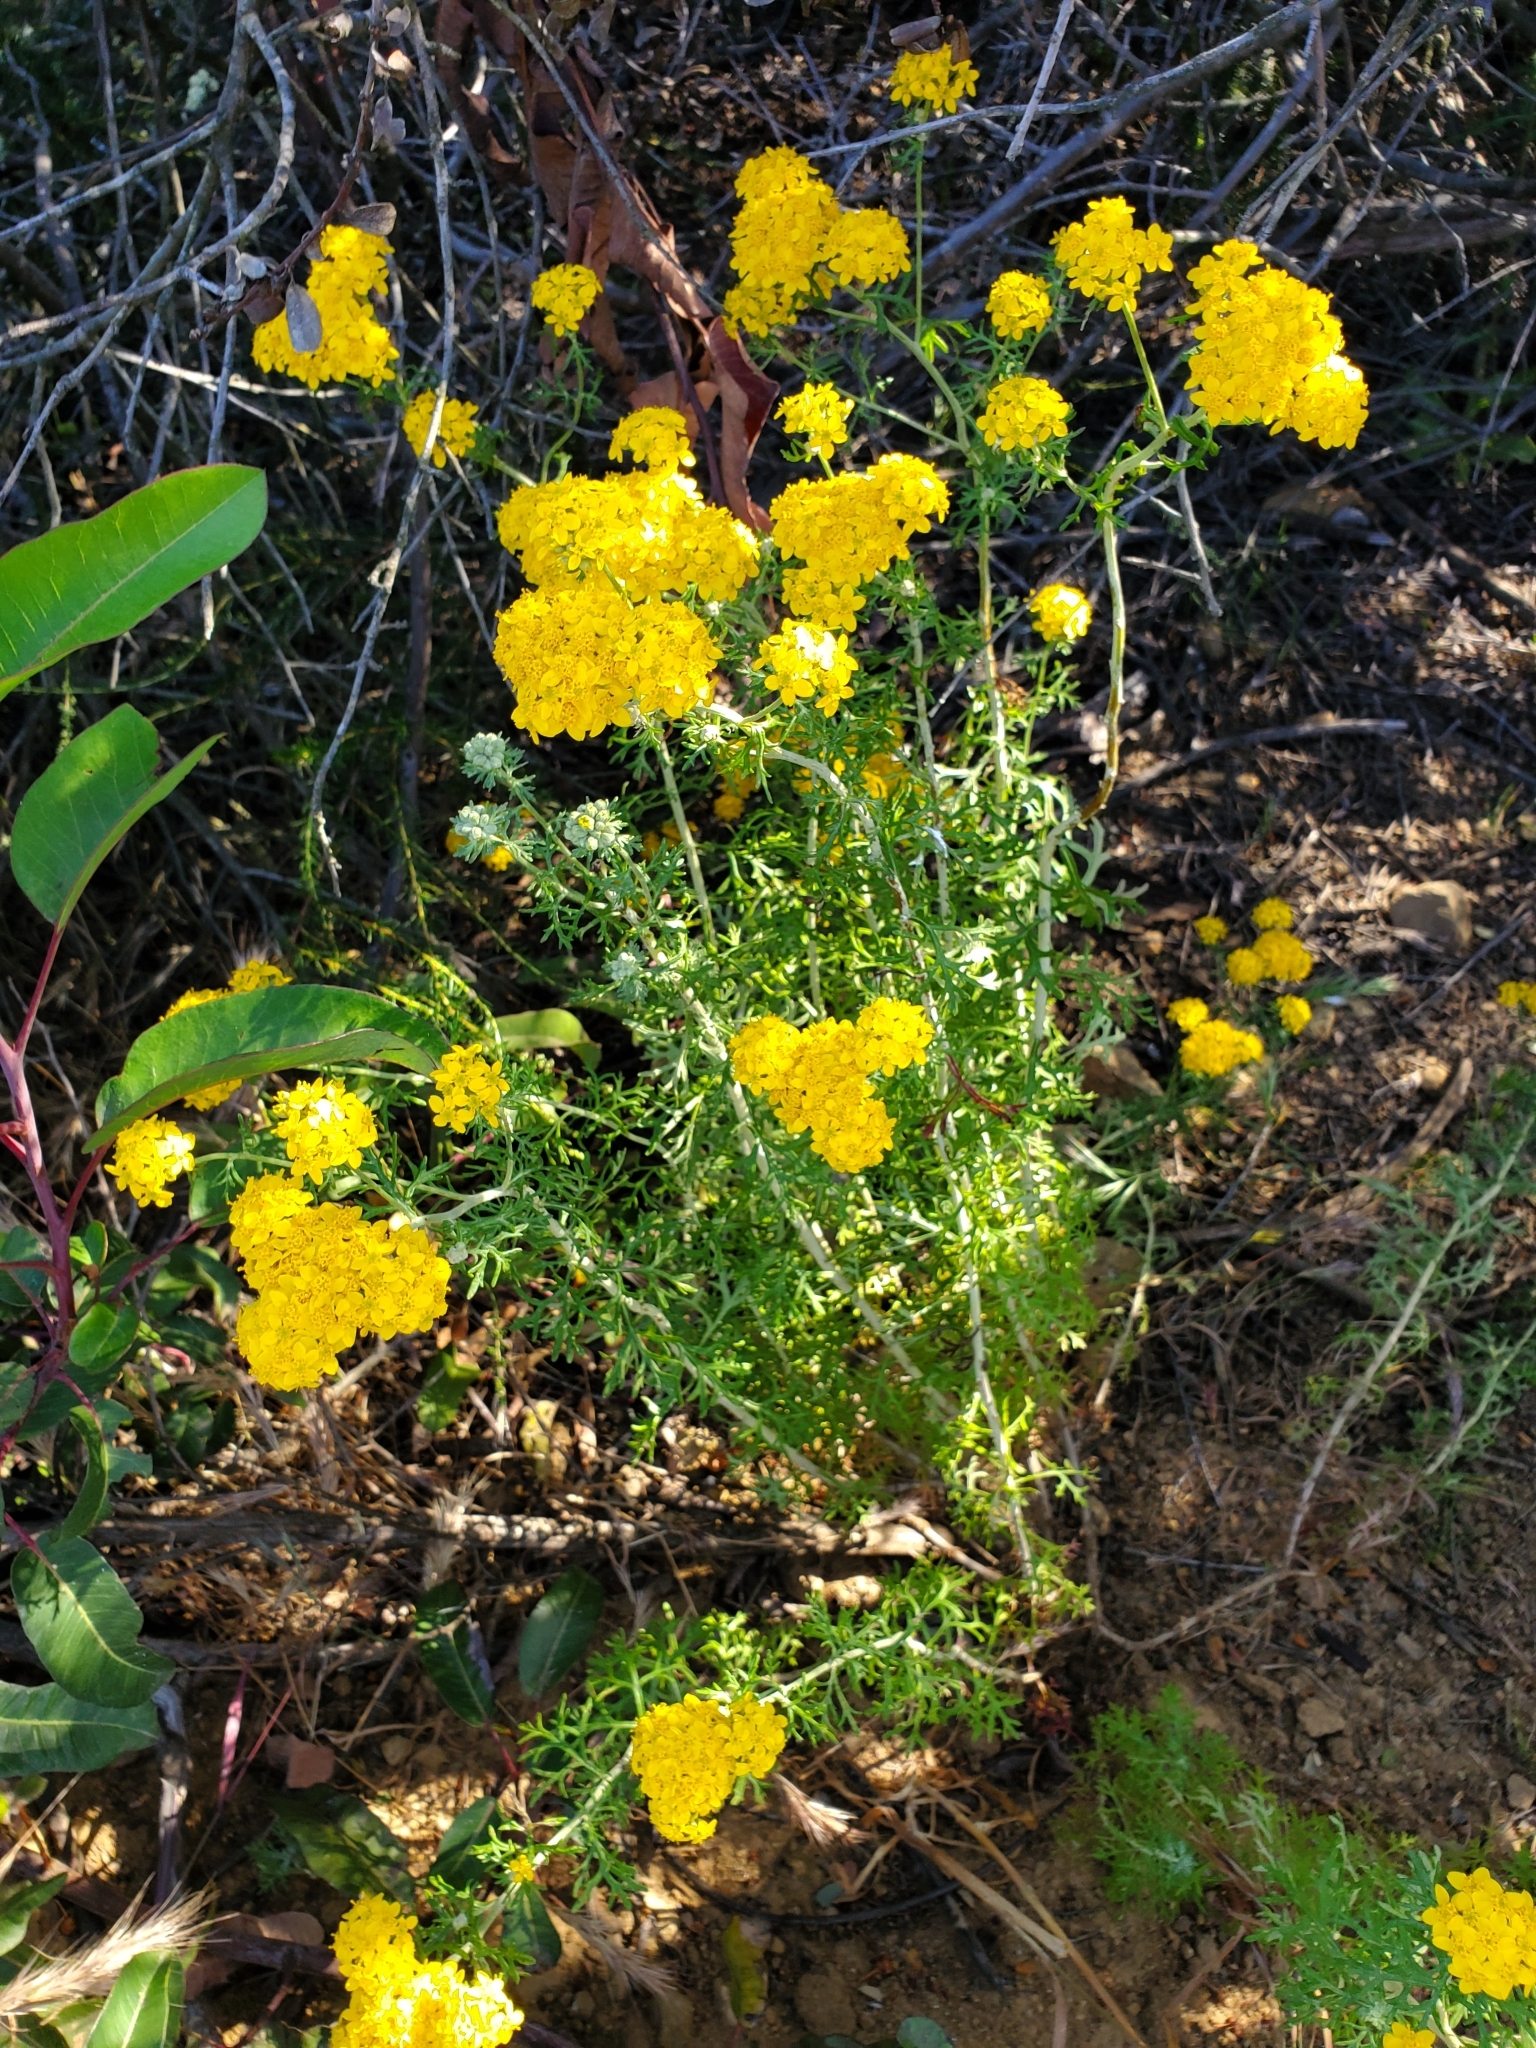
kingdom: Plantae
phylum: Tracheophyta
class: Magnoliopsida
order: Asterales
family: Asteraceae
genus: Eriophyllum
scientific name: Eriophyllum confertiflorum
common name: Golden-yarrow
